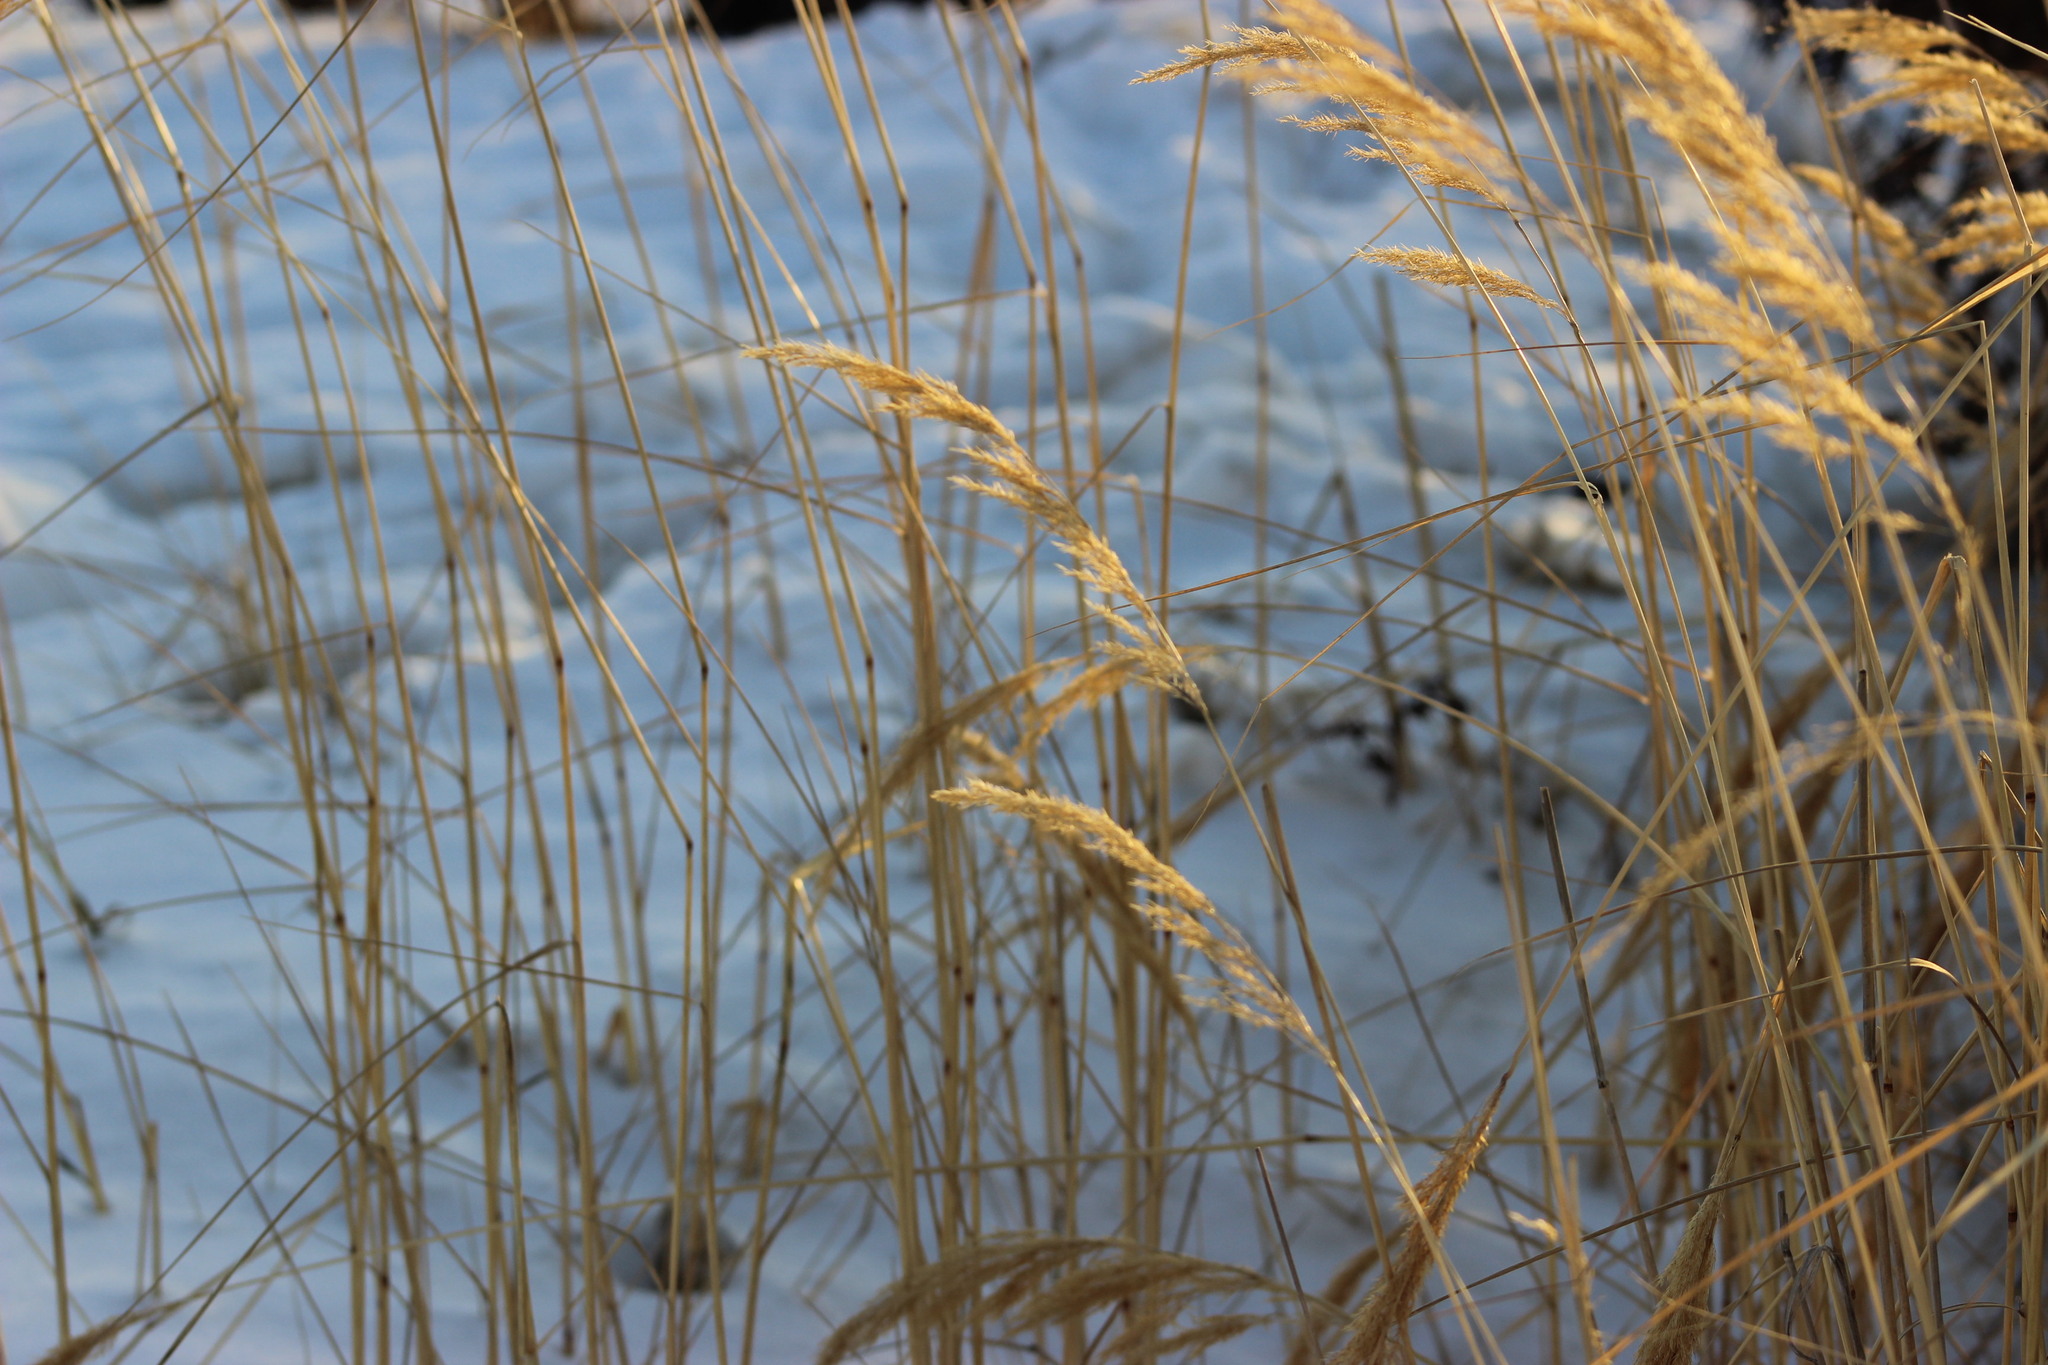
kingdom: Plantae
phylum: Tracheophyta
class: Liliopsida
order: Poales
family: Poaceae
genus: Calamagrostis
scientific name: Calamagrostis purpurea
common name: Scandinavian small-reed
